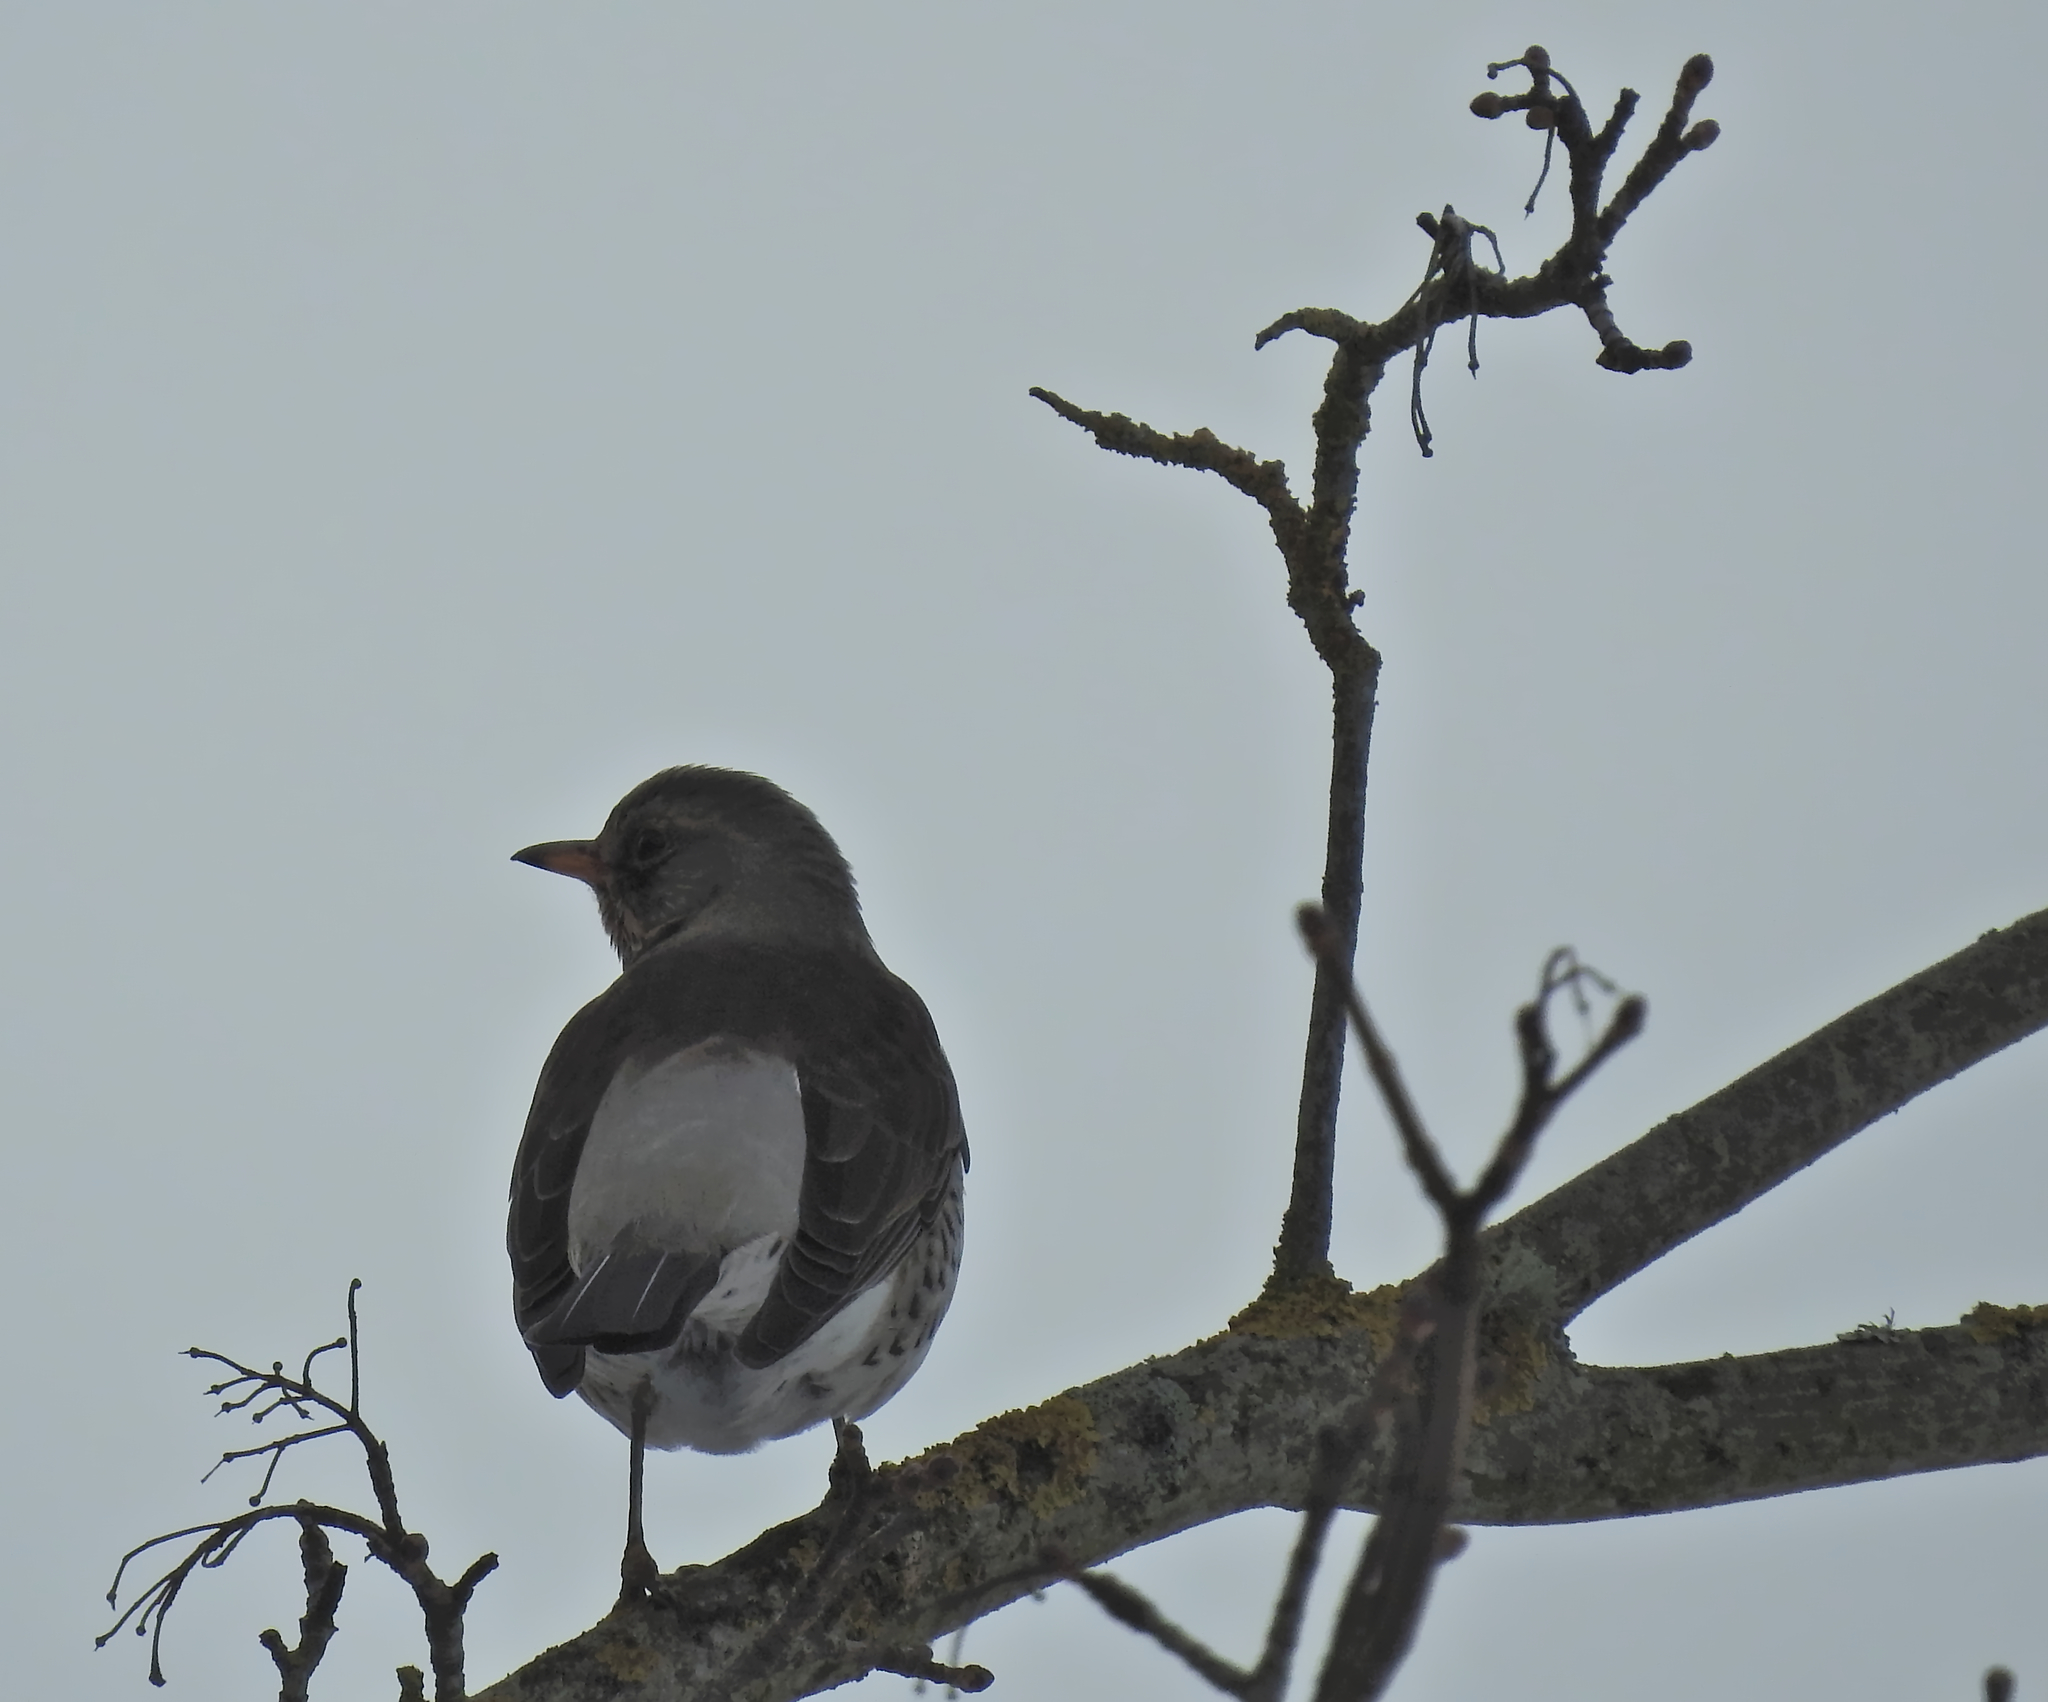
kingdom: Animalia
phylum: Chordata
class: Aves
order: Passeriformes
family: Turdidae
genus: Turdus
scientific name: Turdus pilaris
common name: Fieldfare
